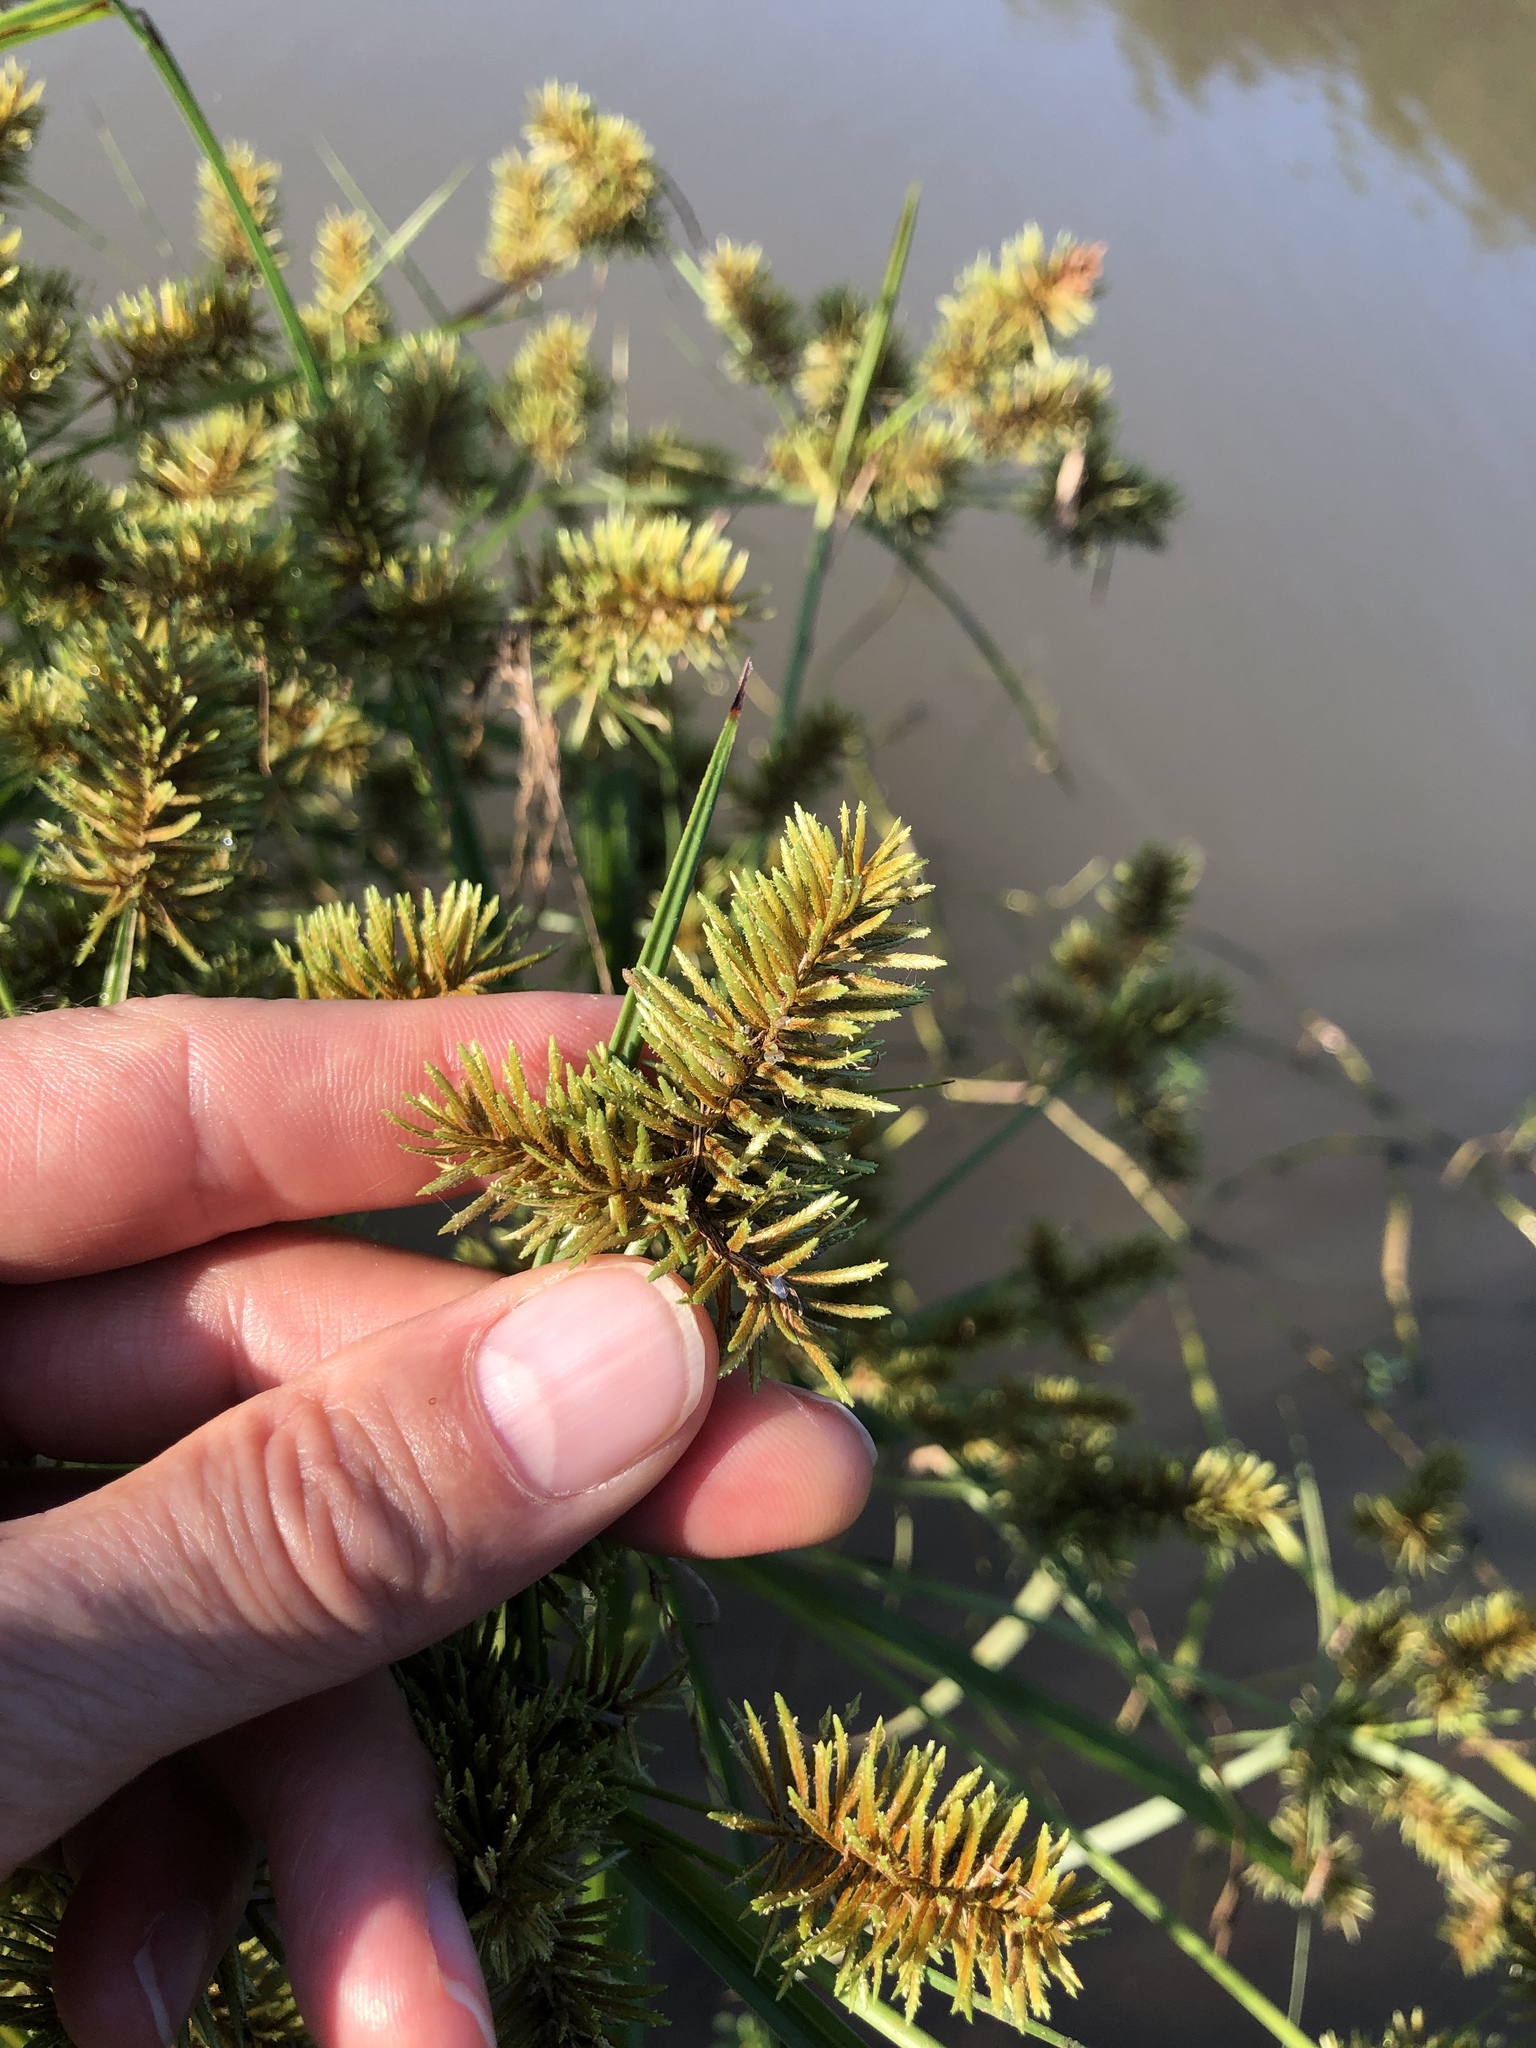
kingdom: Plantae
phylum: Tracheophyta
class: Liliopsida
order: Poales
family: Cyperaceae
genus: Cyperus
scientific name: Cyperus erythrorhizos
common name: Red-root flat sedge
